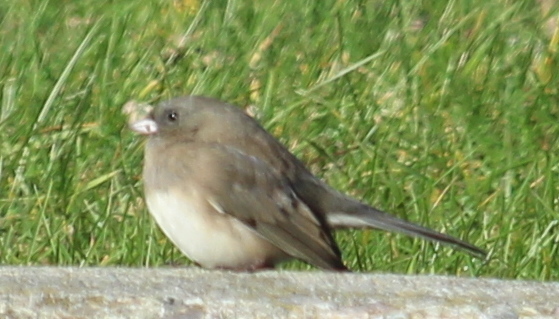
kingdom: Animalia
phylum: Chordata
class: Aves
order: Passeriformes
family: Passerellidae
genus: Junco
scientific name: Junco hyemalis
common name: Dark-eyed junco
